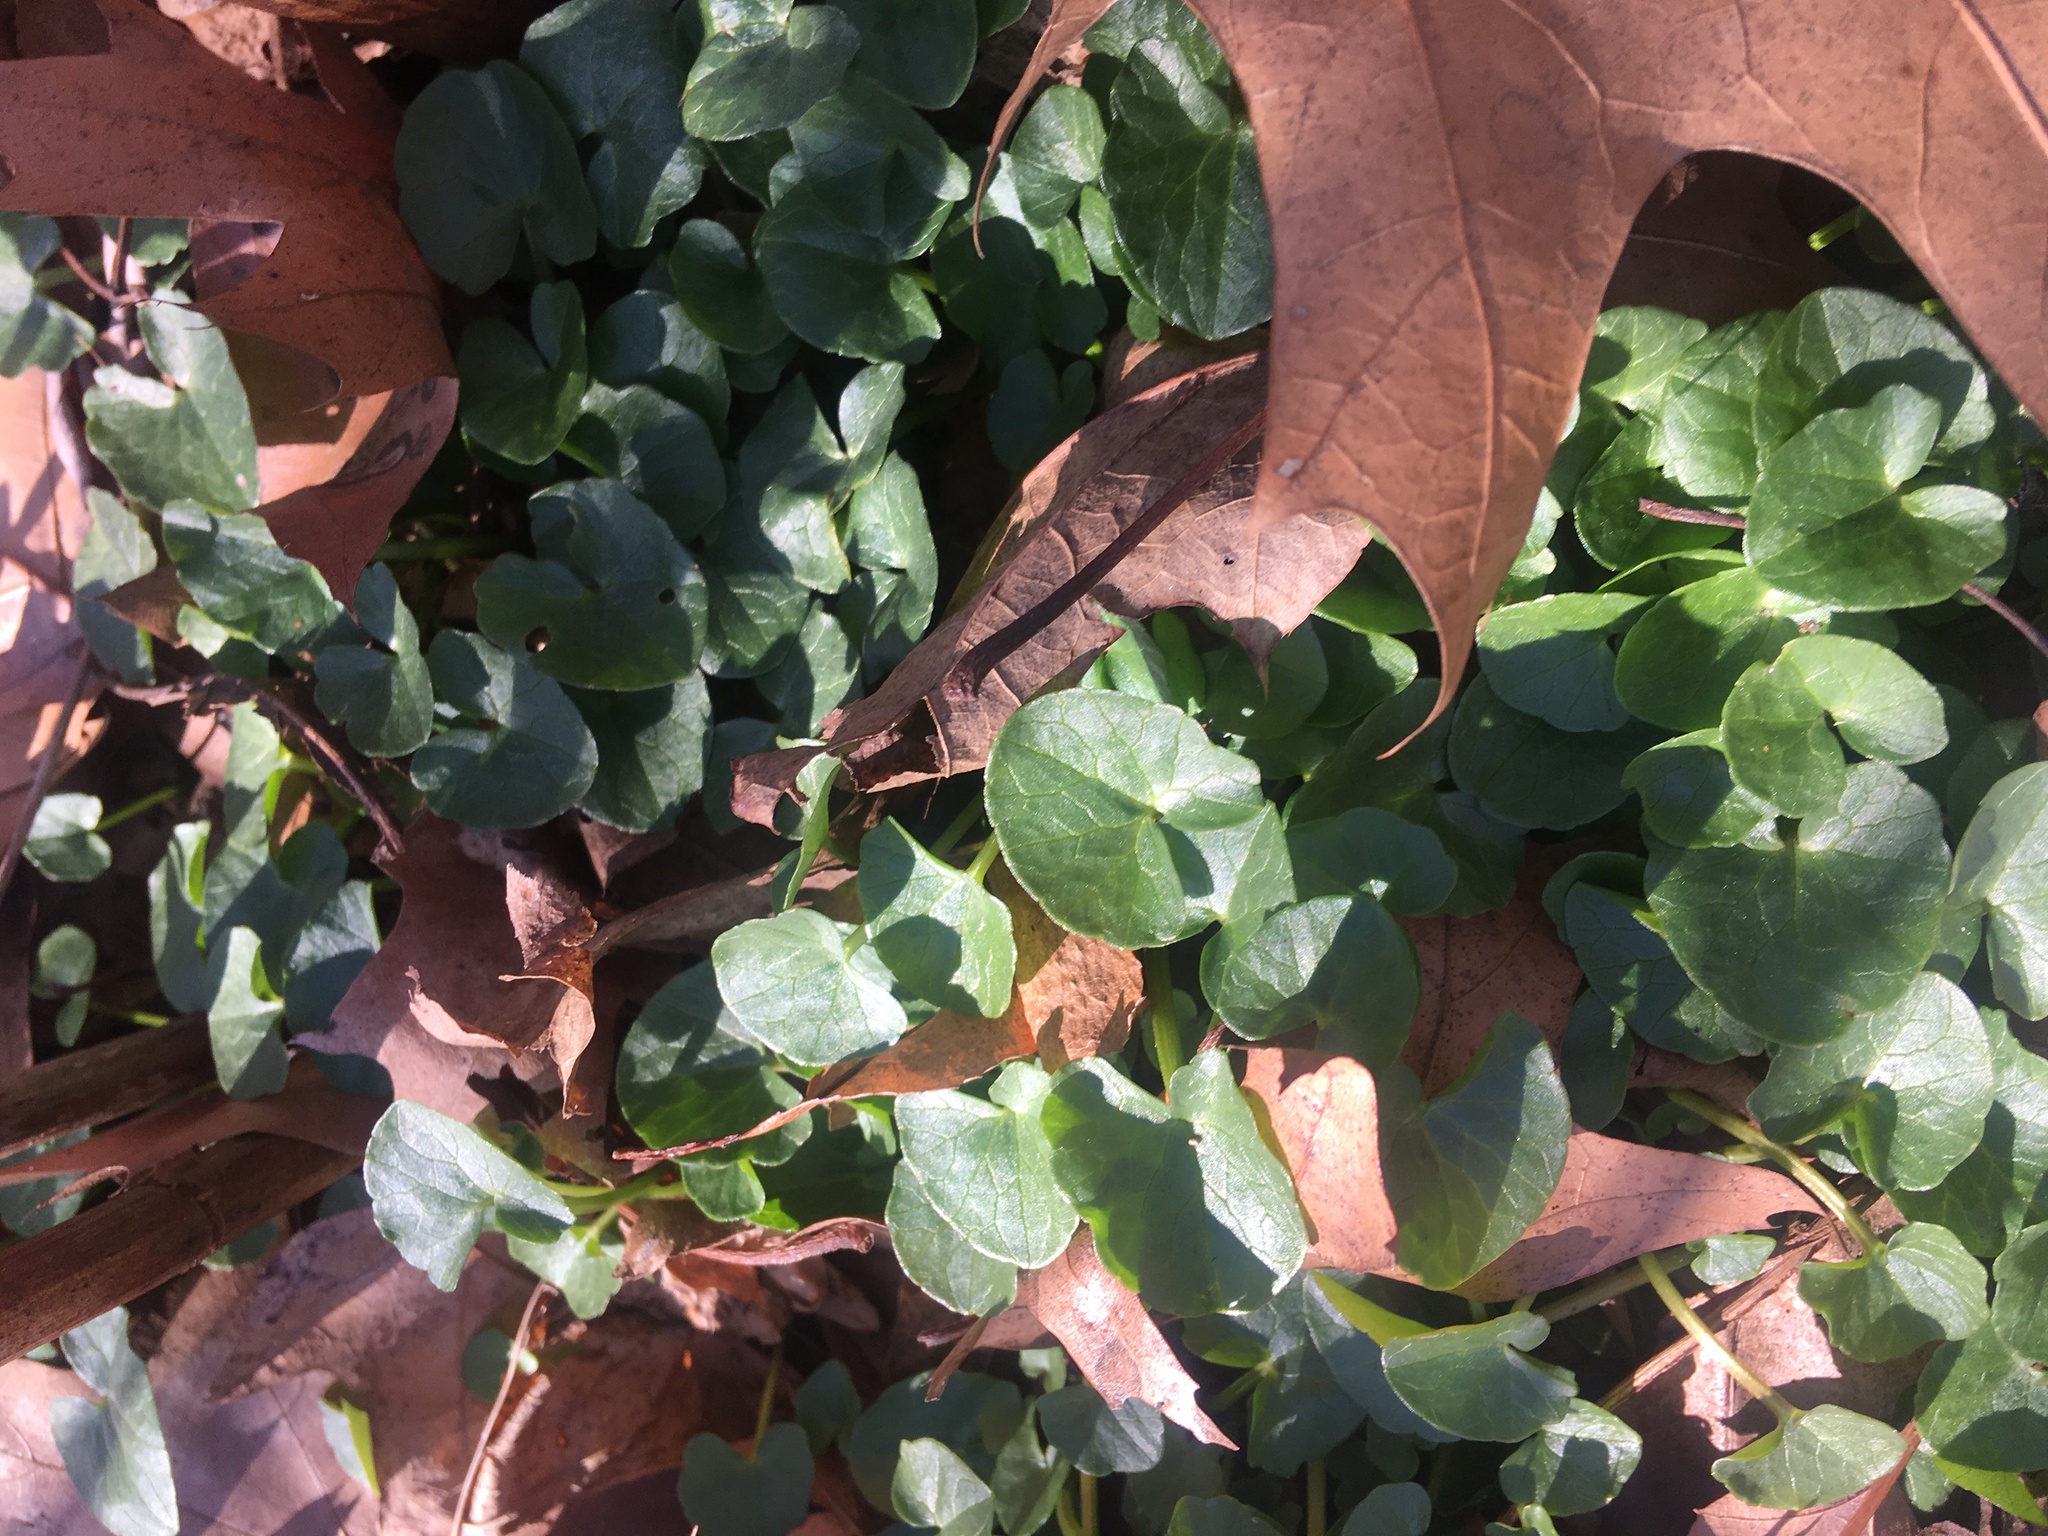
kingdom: Plantae
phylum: Tracheophyta
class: Magnoliopsida
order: Ranunculales
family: Ranunculaceae
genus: Ficaria
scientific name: Ficaria verna
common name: Lesser celandine
